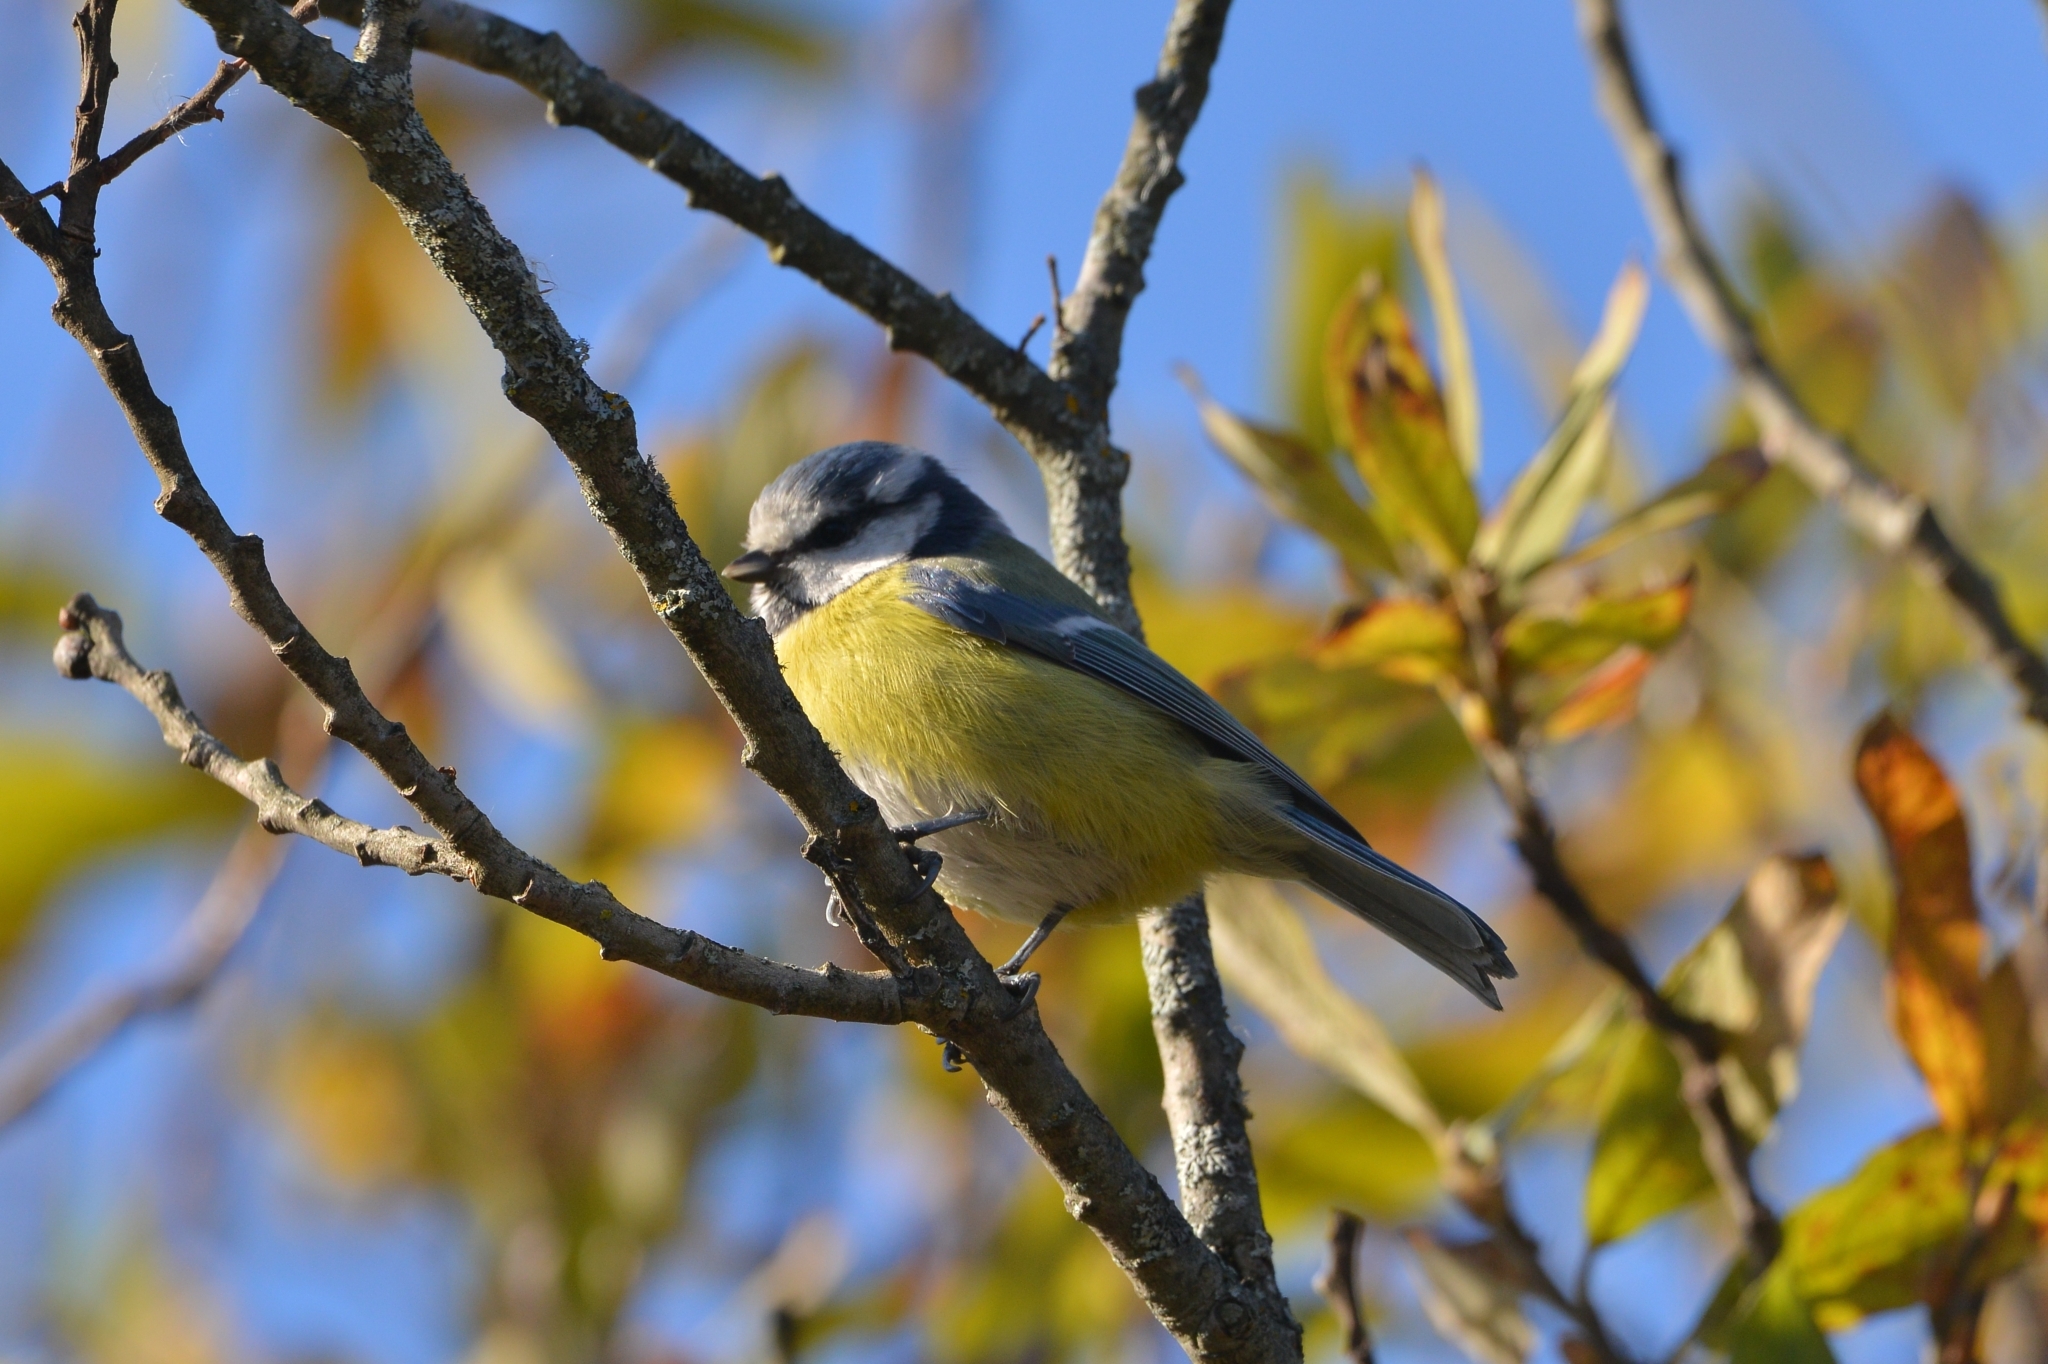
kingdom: Animalia
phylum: Chordata
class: Aves
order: Passeriformes
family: Paridae
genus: Cyanistes
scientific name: Cyanistes caeruleus
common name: Eurasian blue tit
